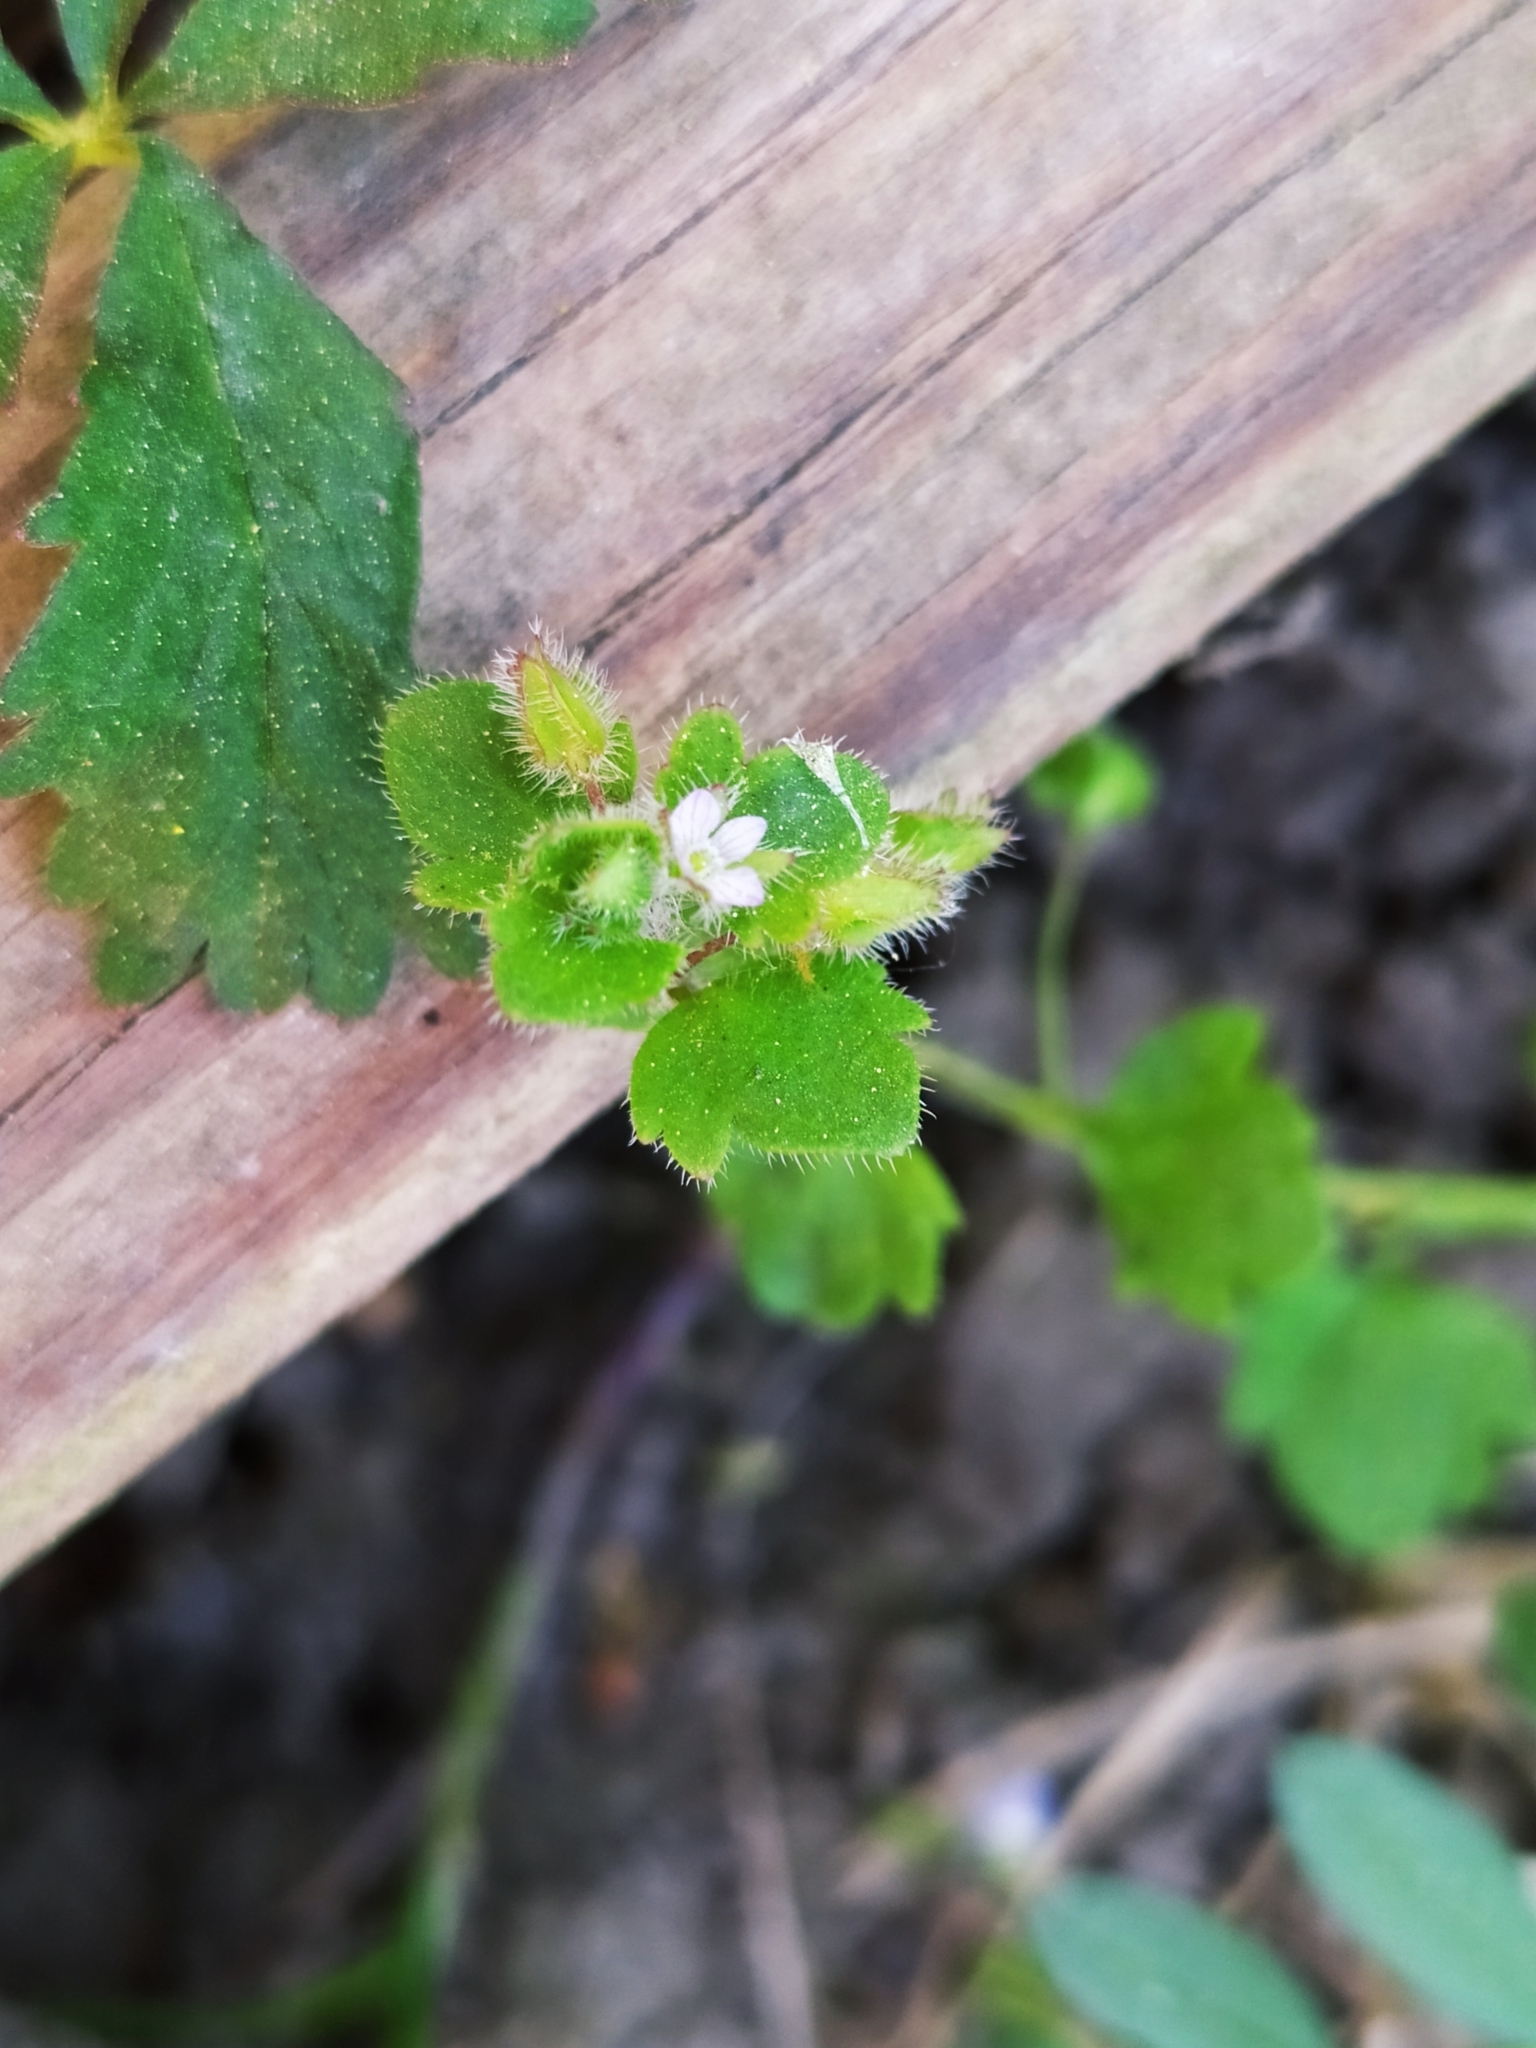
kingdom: Plantae
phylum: Tracheophyta
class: Magnoliopsida
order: Lamiales
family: Plantaginaceae
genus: Veronica
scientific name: Veronica sublobata
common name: False ivy-leaved speedwell
